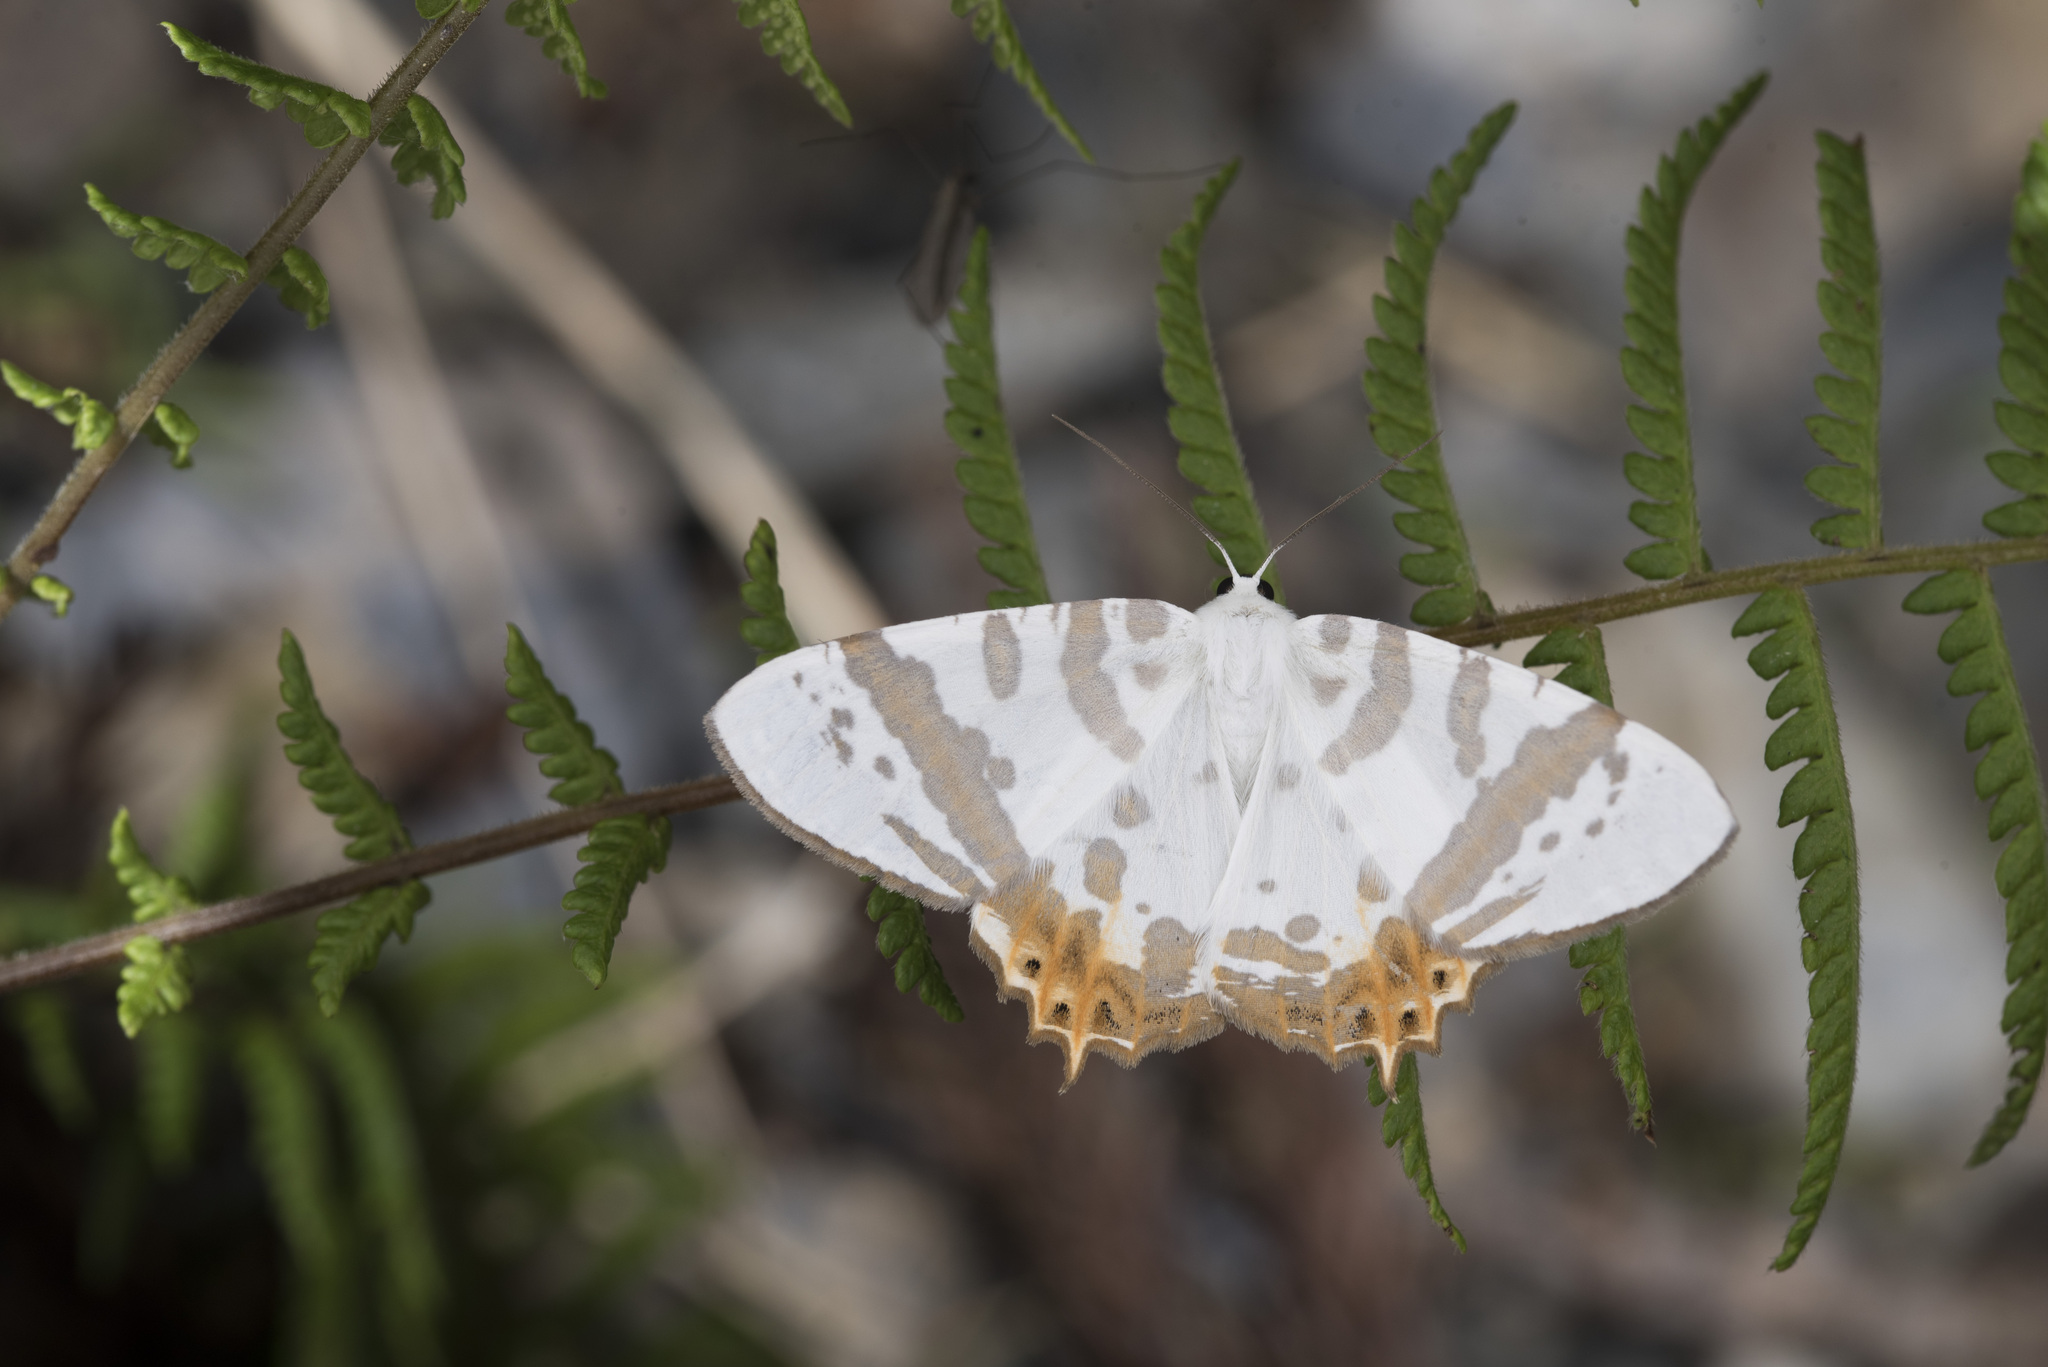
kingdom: Animalia
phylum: Arthropoda
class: Insecta
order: Lepidoptera
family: Geometridae
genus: Tristrophis
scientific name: Tristrophis rectifascia
